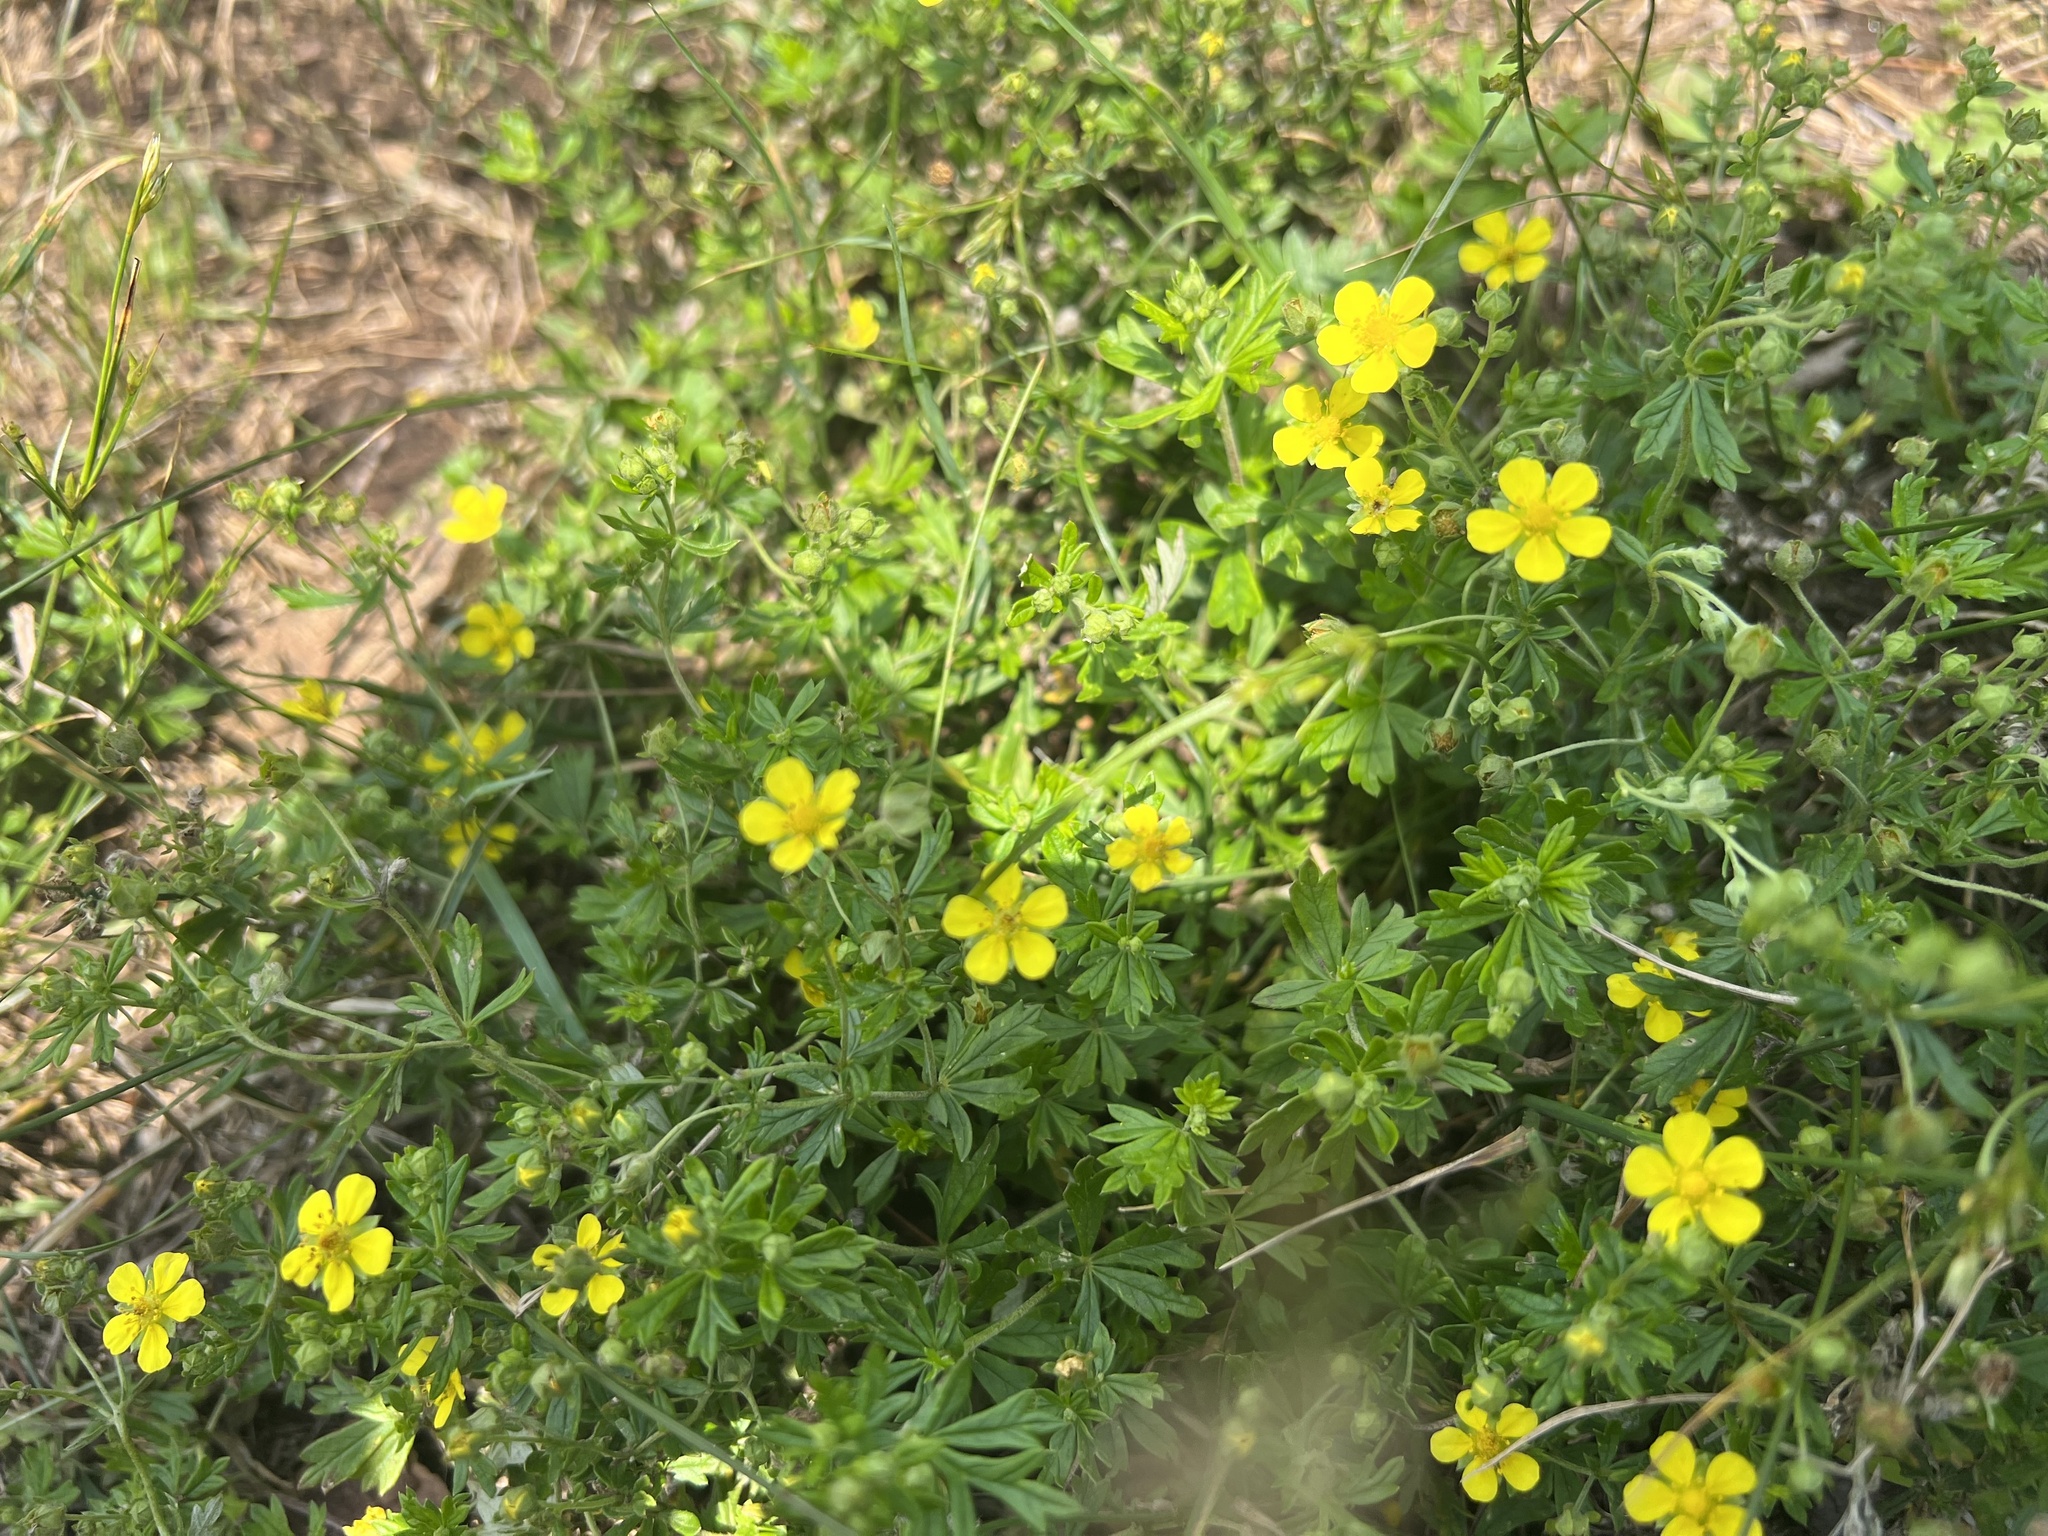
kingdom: Plantae
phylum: Tracheophyta
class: Magnoliopsida
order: Rosales
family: Rosaceae
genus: Potentilla
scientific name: Potentilla argentea
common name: Hoary cinquefoil
